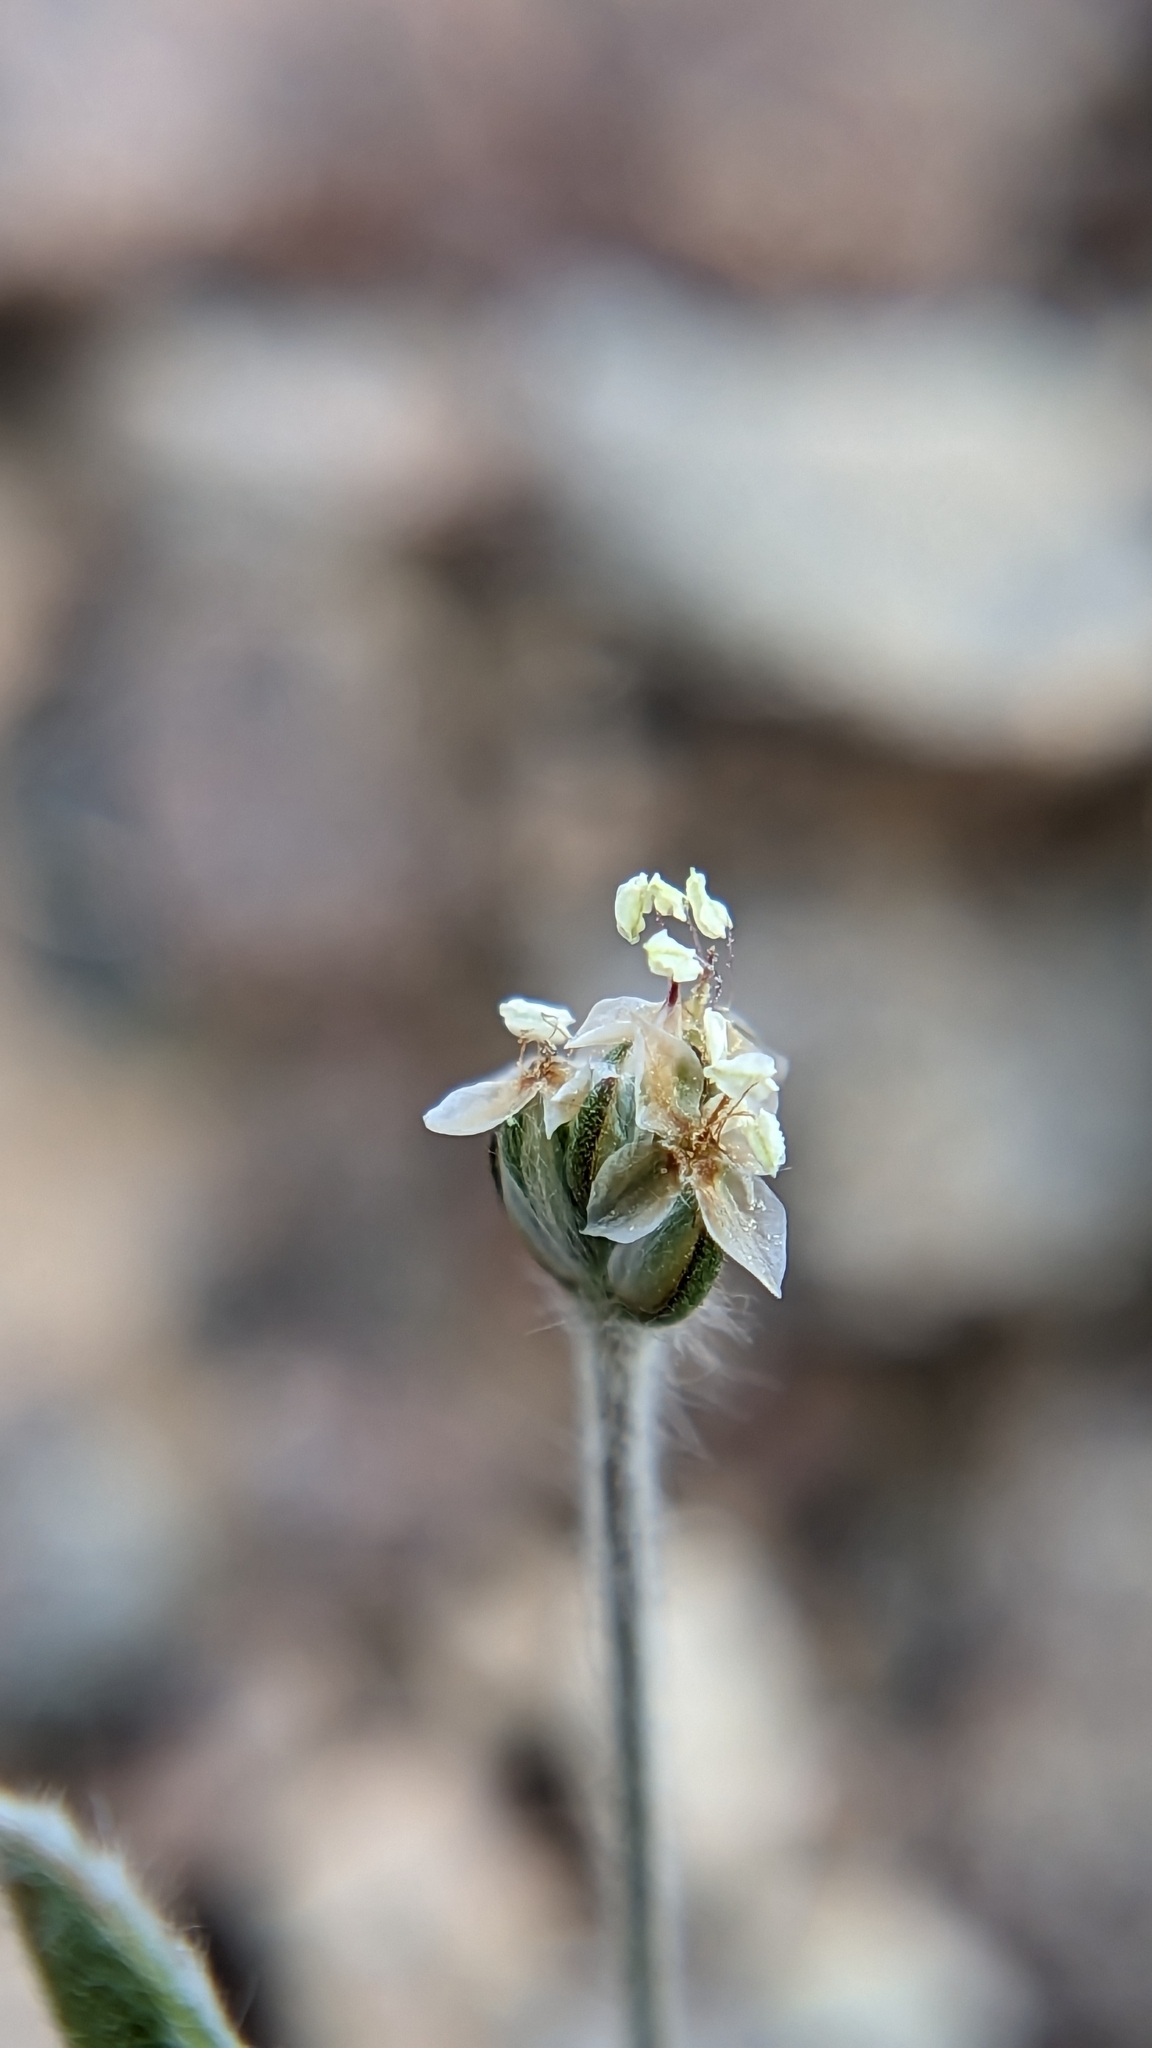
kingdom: Plantae
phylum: Tracheophyta
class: Magnoliopsida
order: Lamiales
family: Plantaginaceae
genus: Plantago
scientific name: Plantago ovata
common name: Blond plantain
